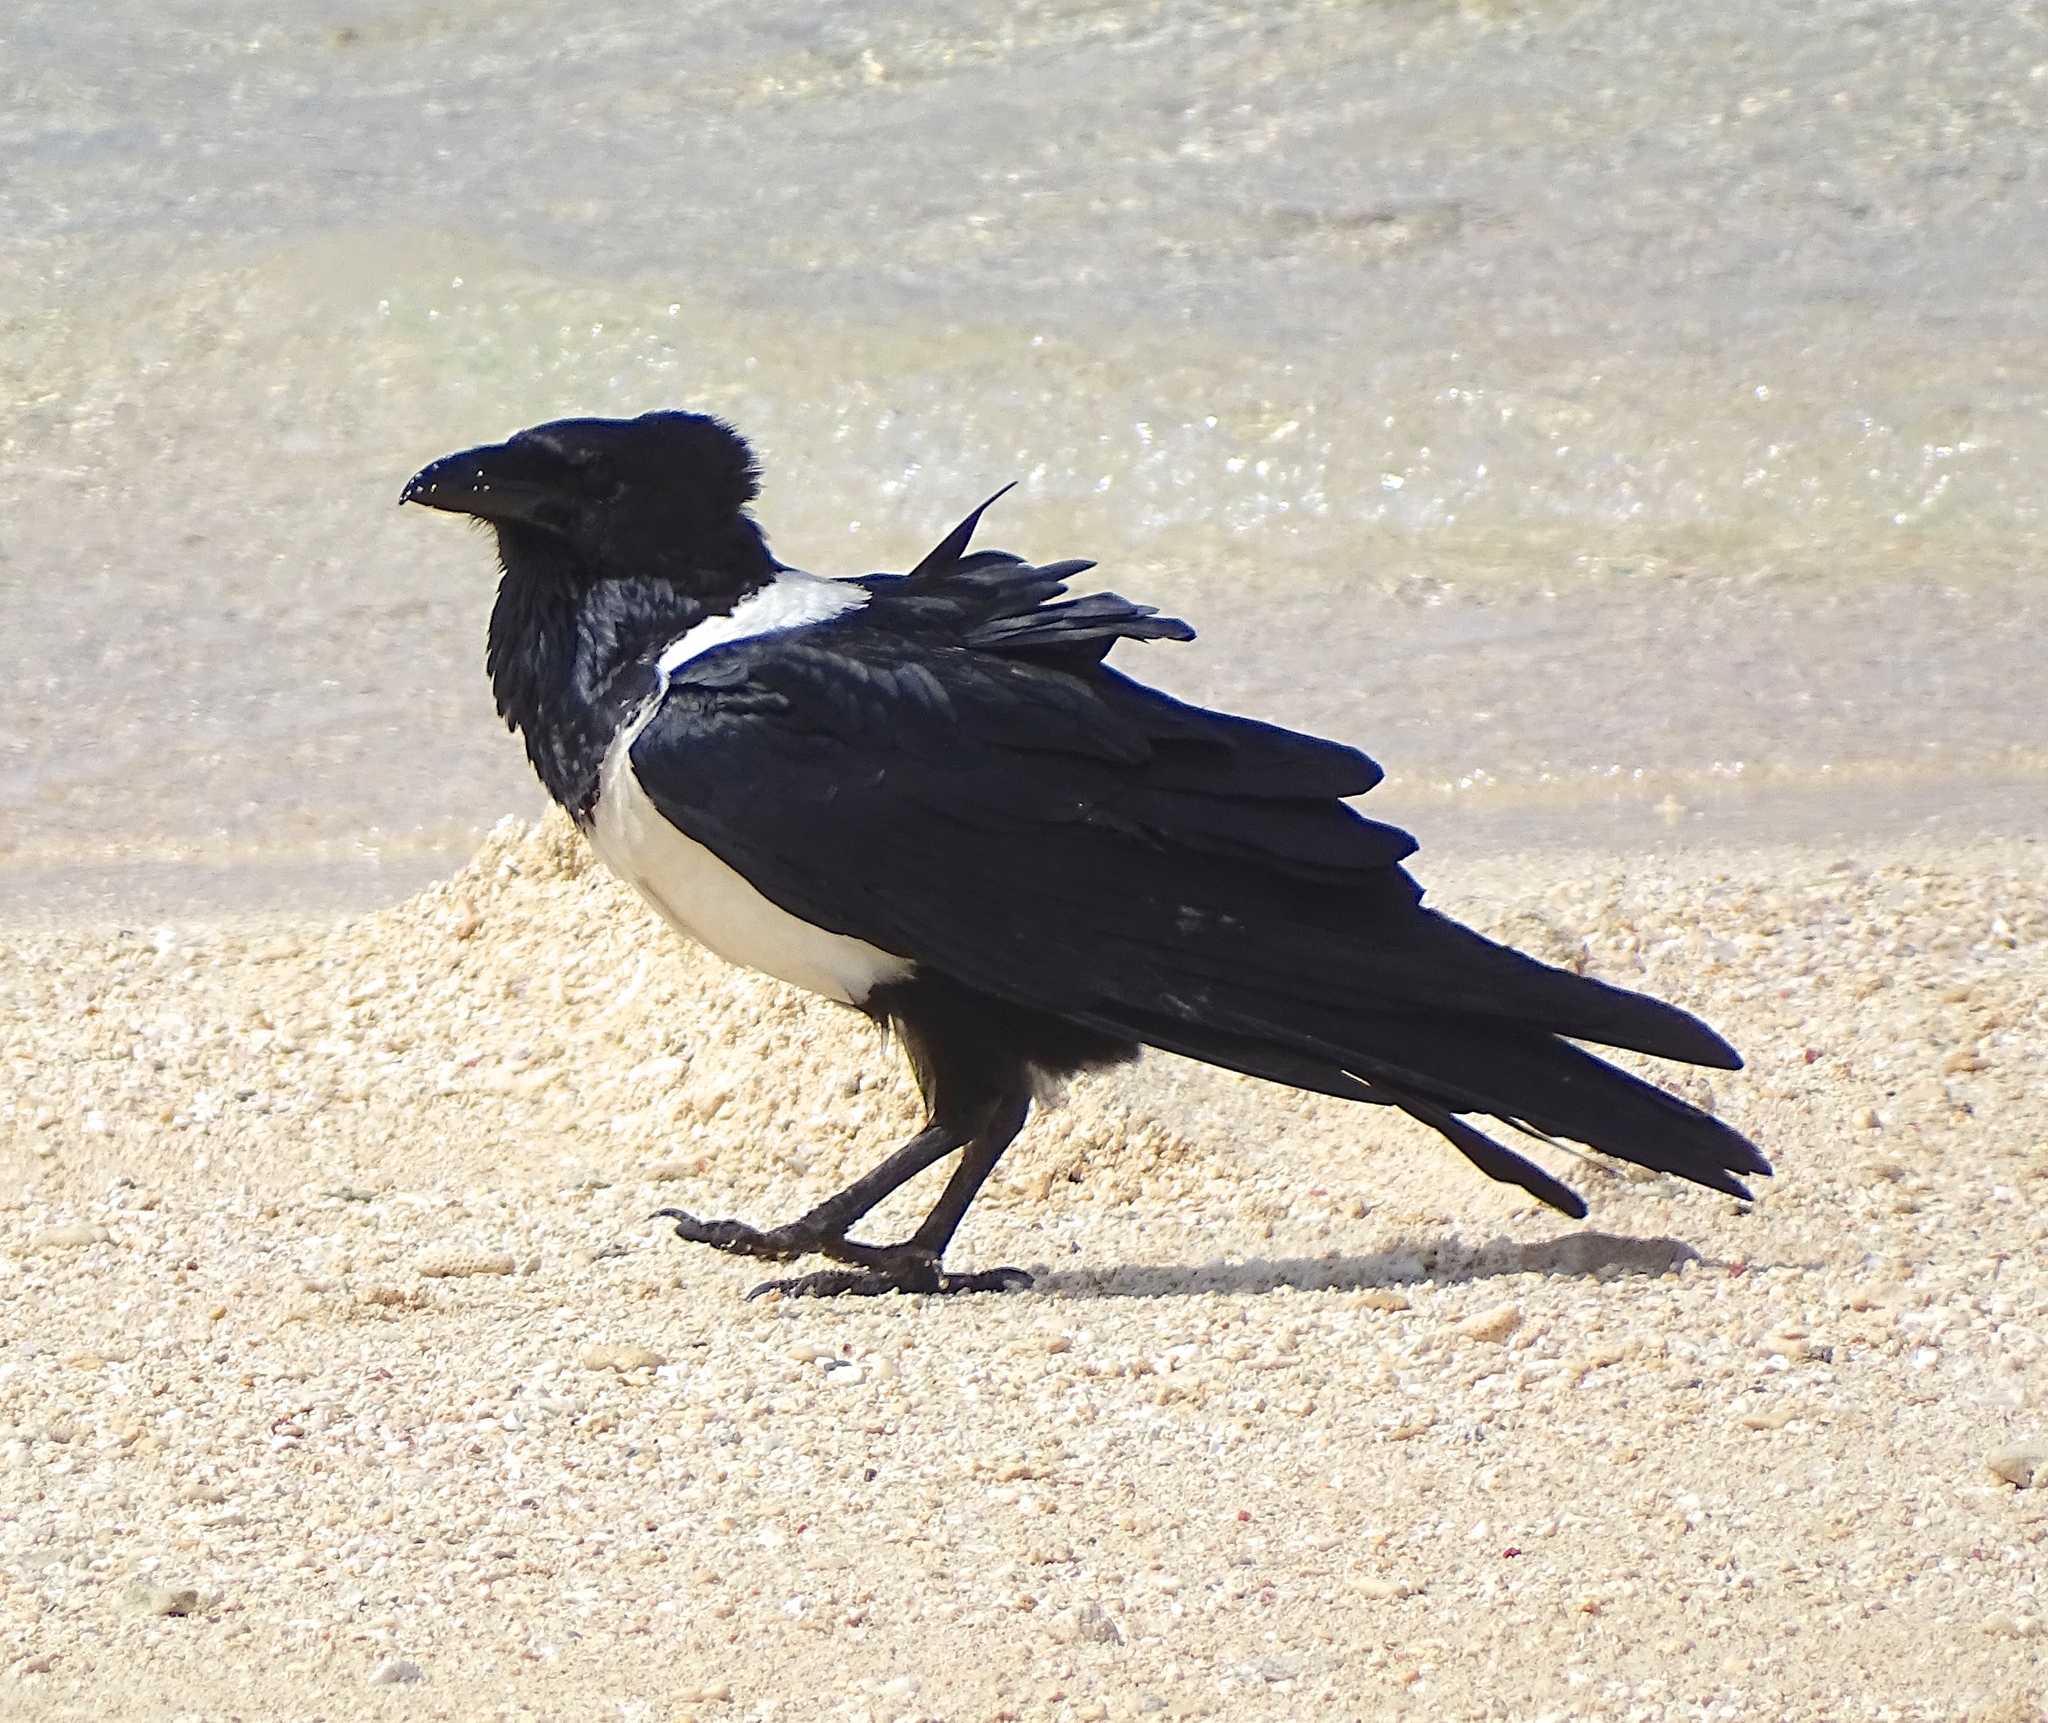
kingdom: Animalia
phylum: Chordata
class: Aves
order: Passeriformes
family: Corvidae
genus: Corvus
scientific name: Corvus albus
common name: Pied crow
